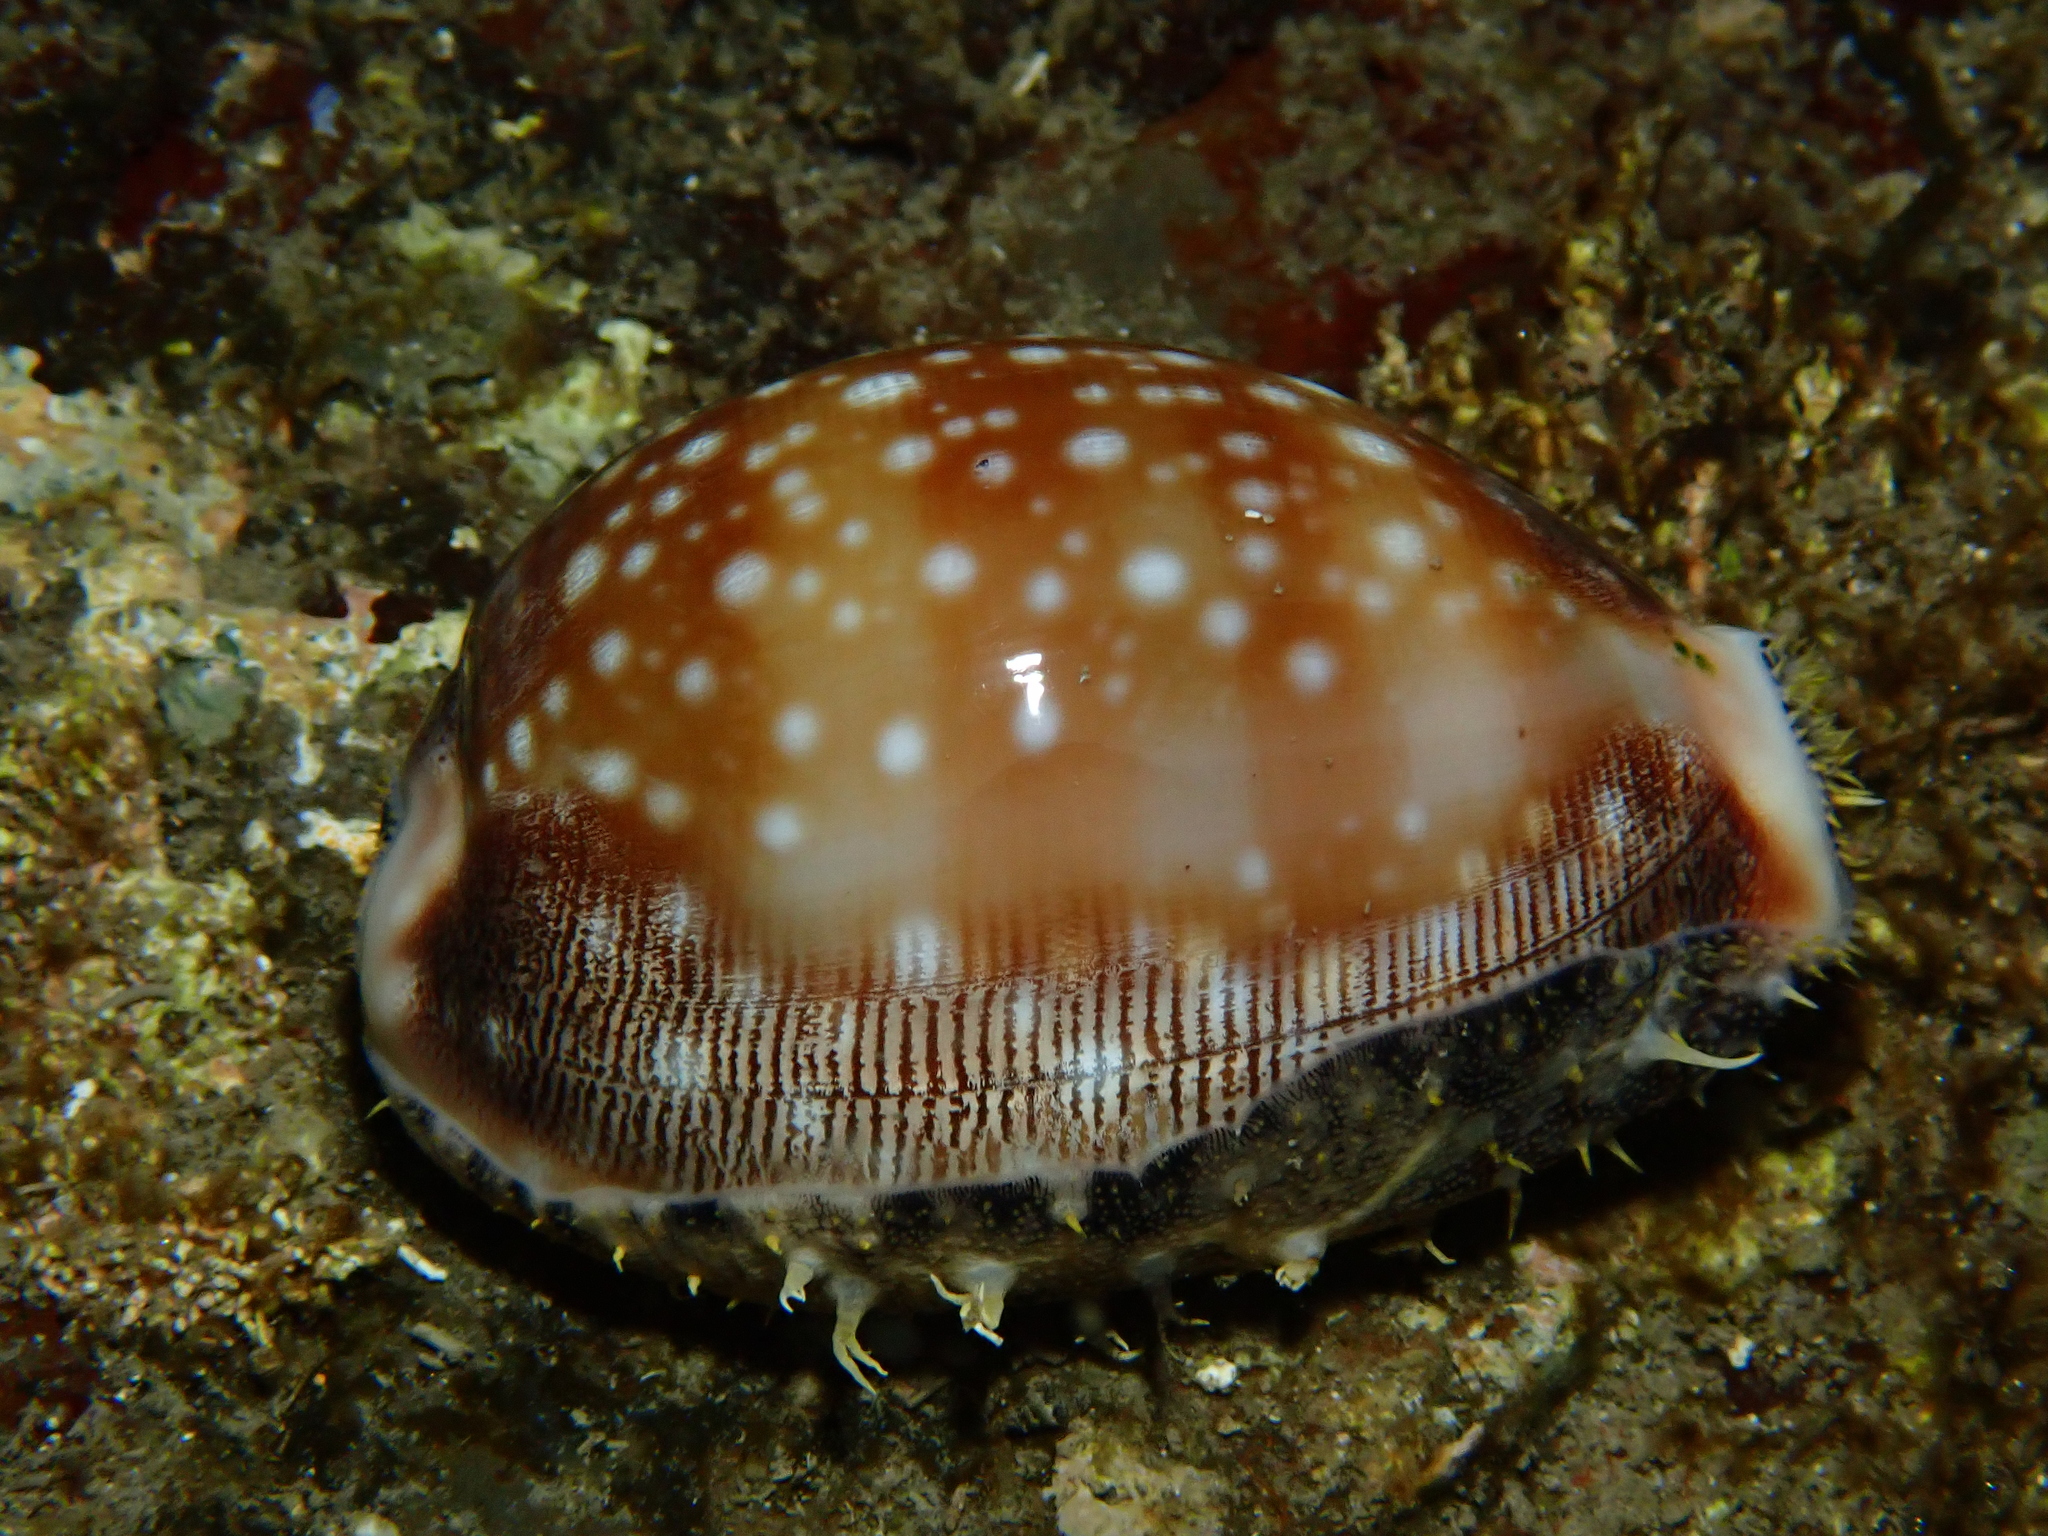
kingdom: Animalia
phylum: Mollusca
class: Gastropoda
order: Littorinimorpha
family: Cypraeidae
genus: Lyncina
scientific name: Lyncina vitellus
